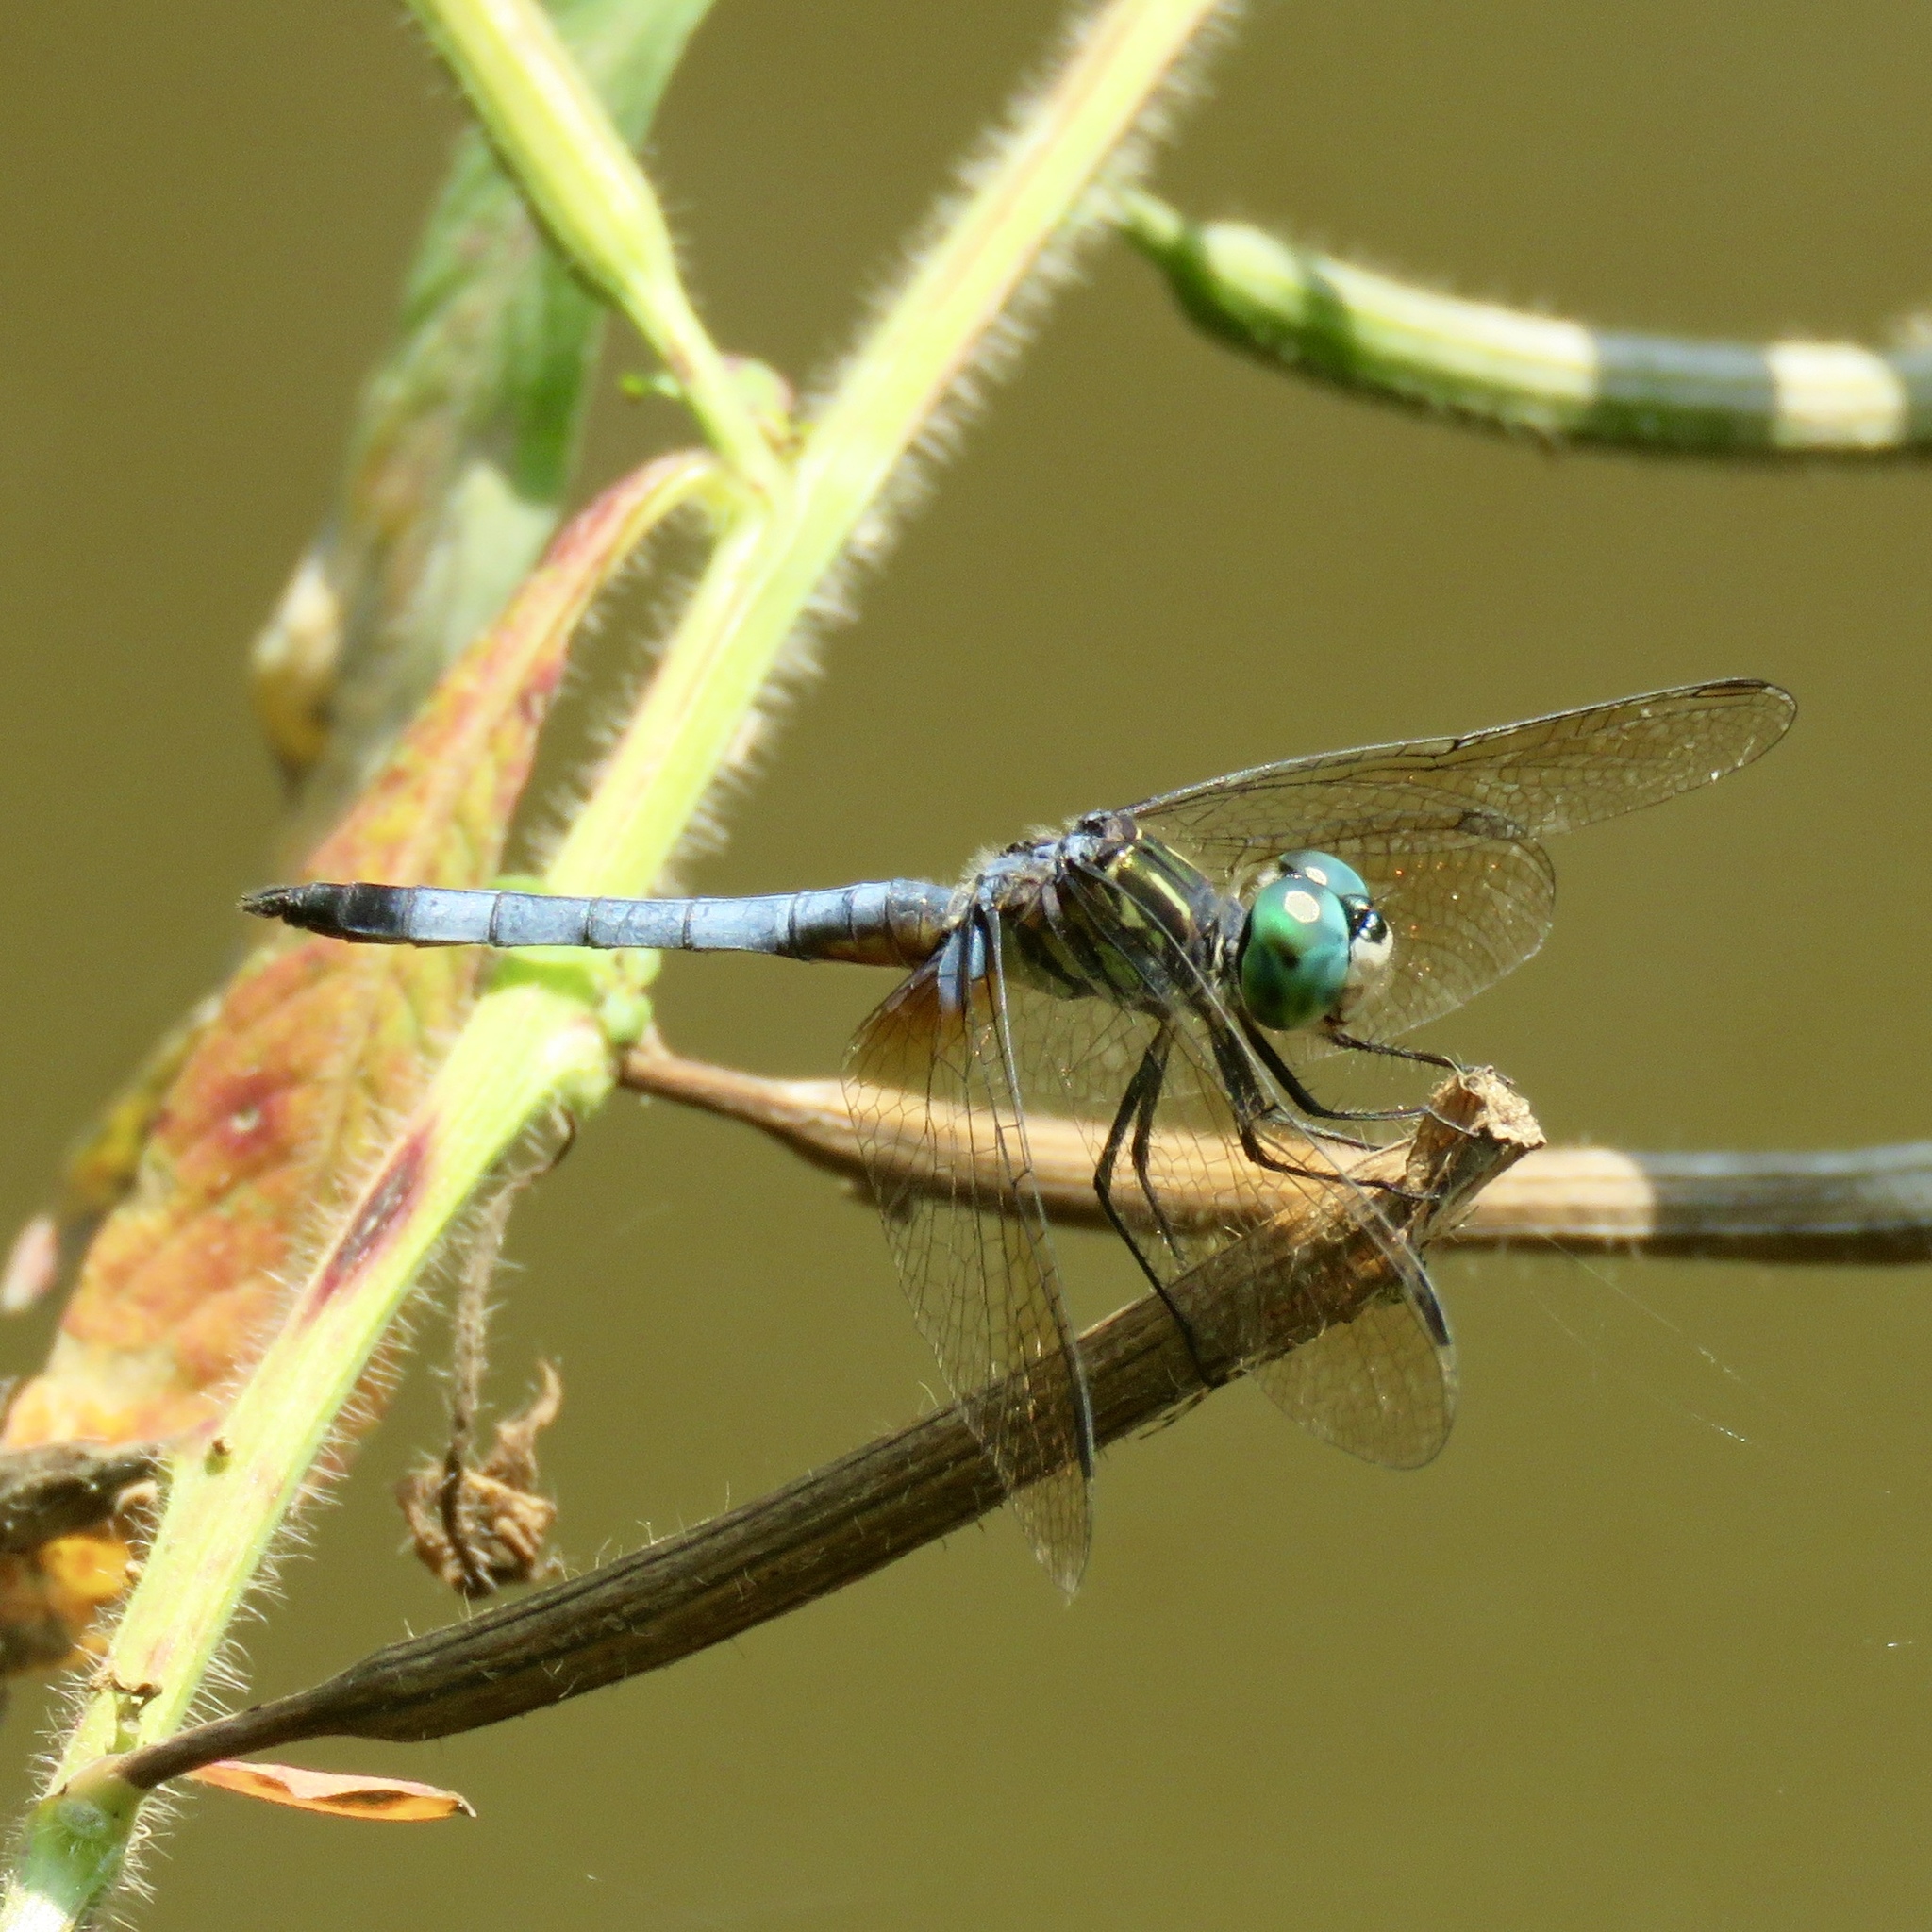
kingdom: Animalia
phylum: Arthropoda
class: Insecta
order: Odonata
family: Libellulidae
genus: Pachydiplax
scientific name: Pachydiplax longipennis
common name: Blue dasher
